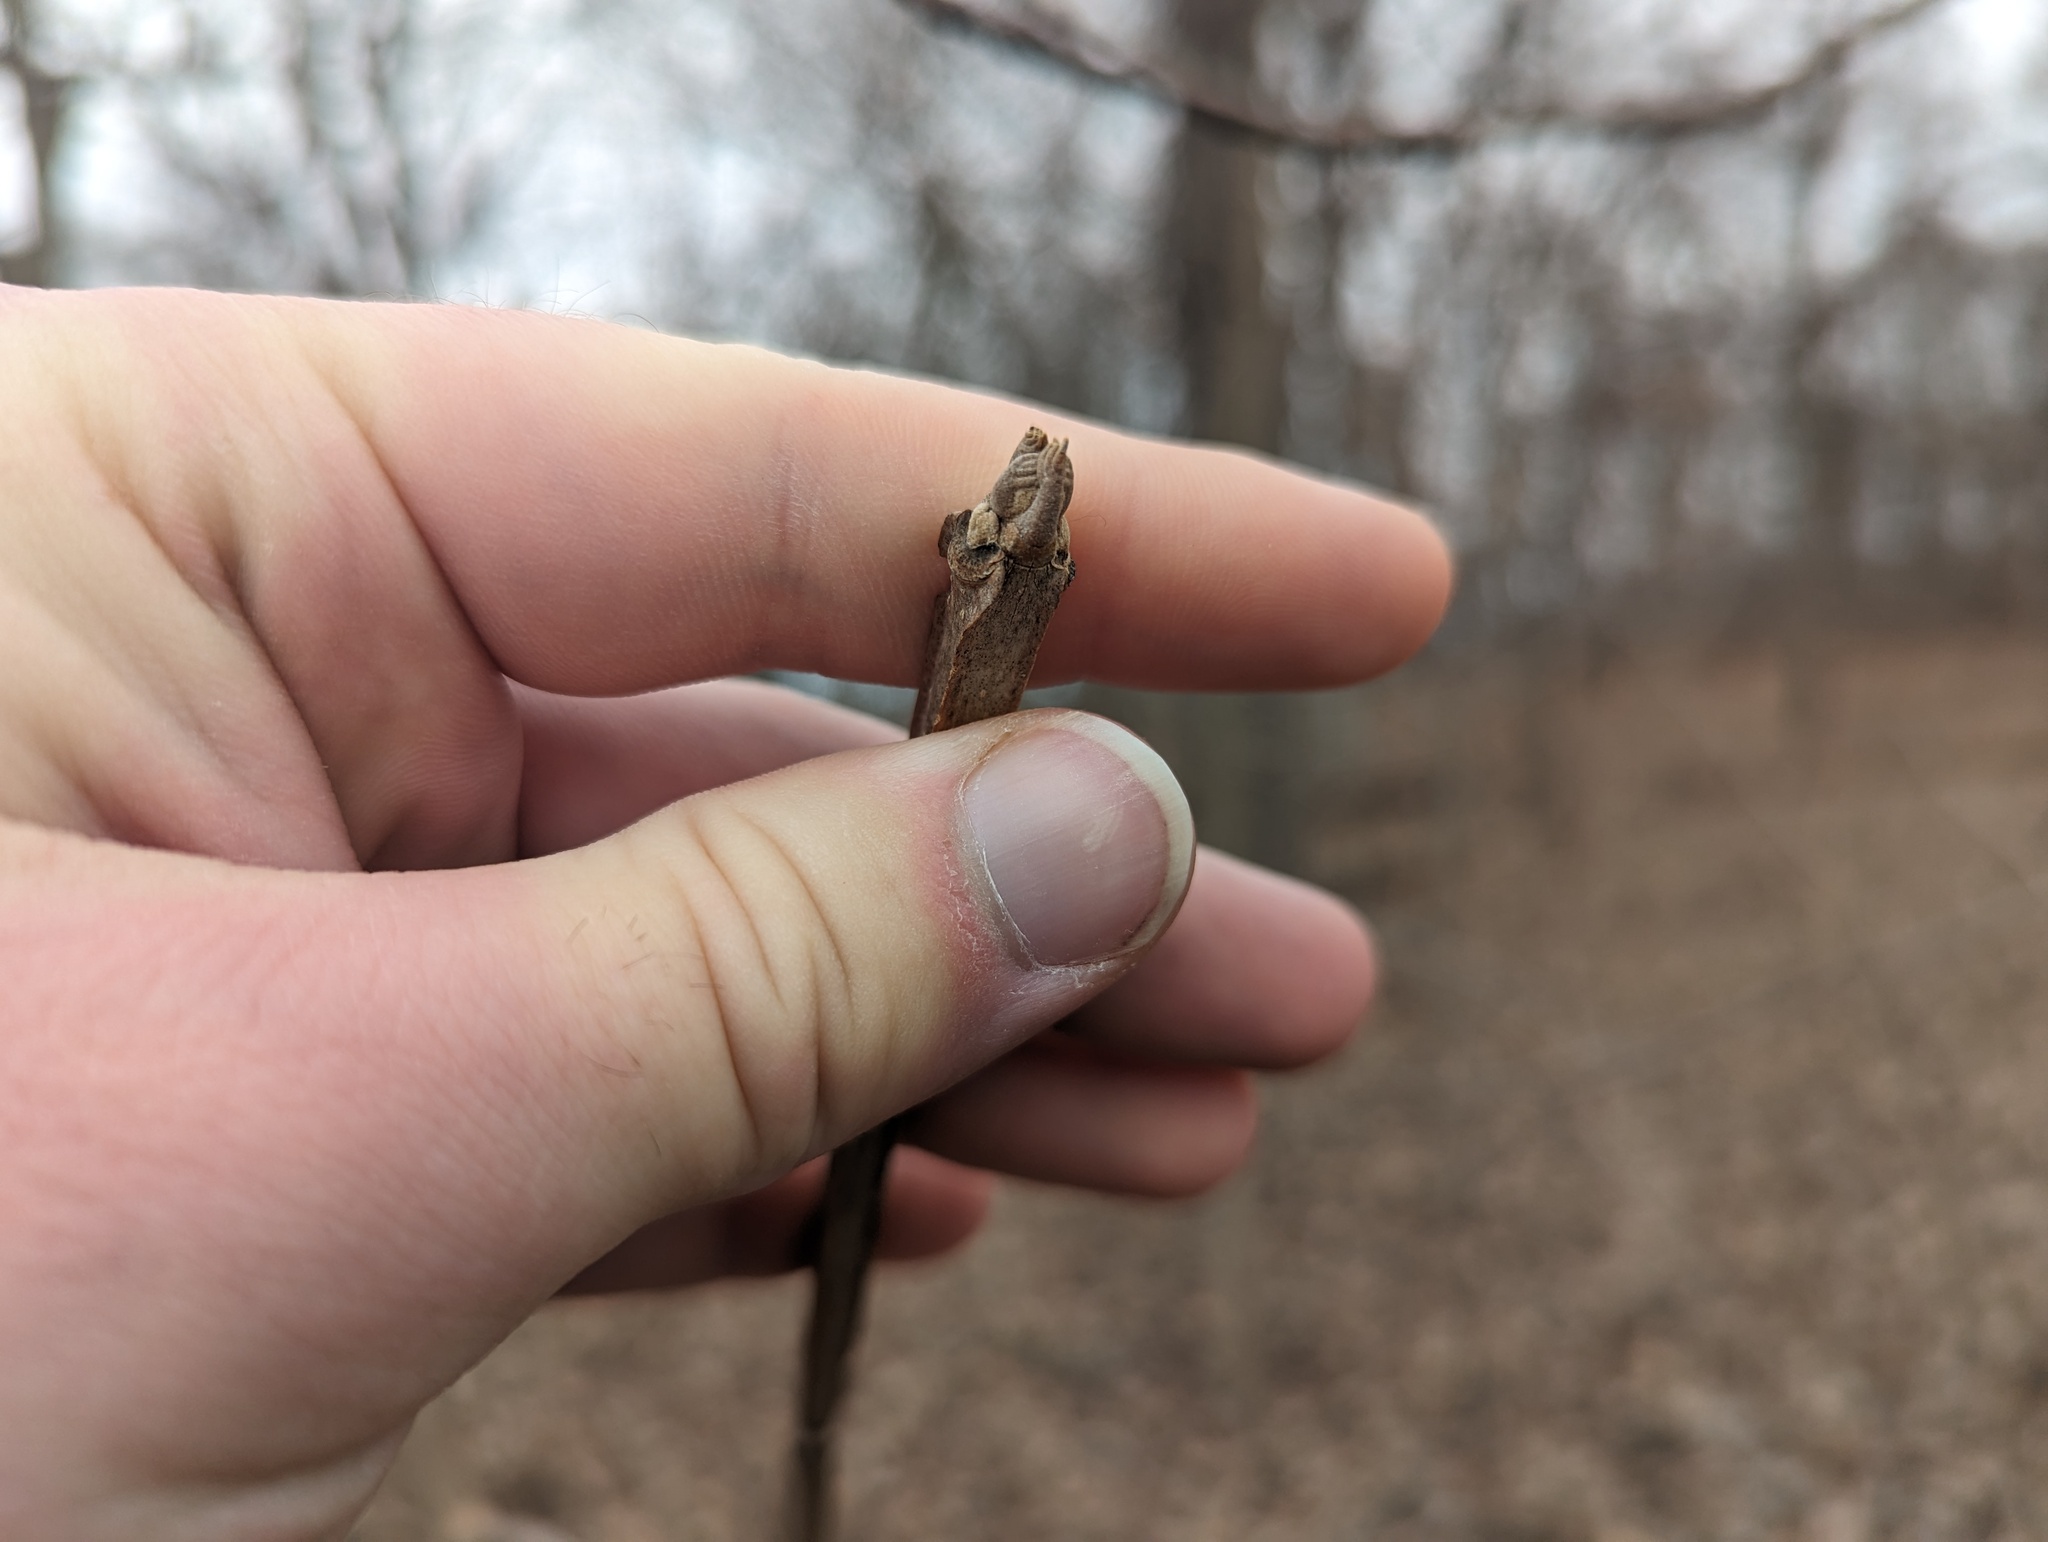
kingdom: Plantae
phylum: Tracheophyta
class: Magnoliopsida
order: Lamiales
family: Oleaceae
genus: Fraxinus
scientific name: Fraxinus quadrangulata
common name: Blue ash
